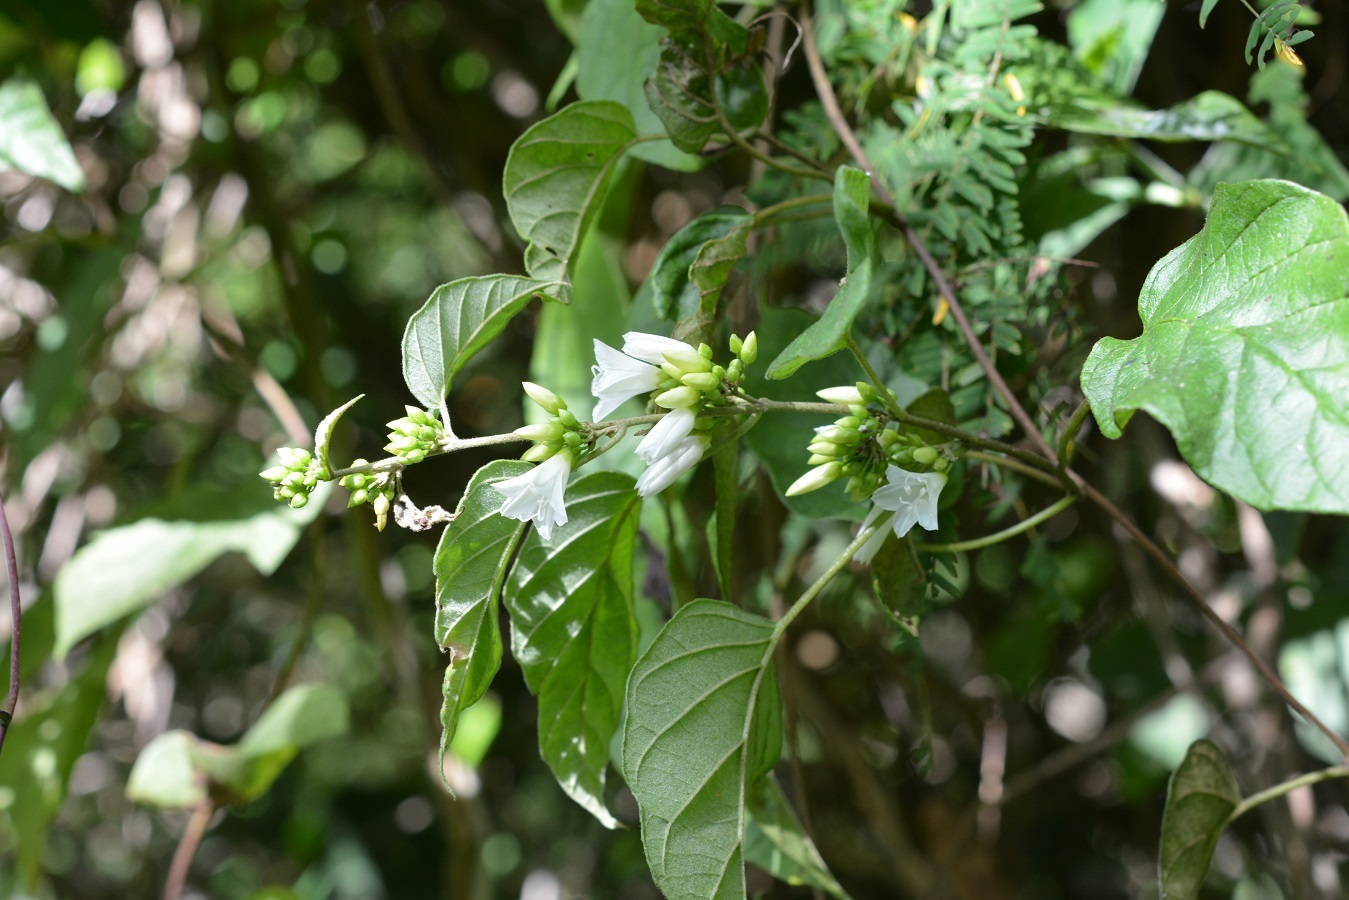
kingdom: Plantae
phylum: Tracheophyta
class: Magnoliopsida
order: Solanales
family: Convolvulaceae
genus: Jacquemontia
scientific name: Jacquemontia nodiflora
